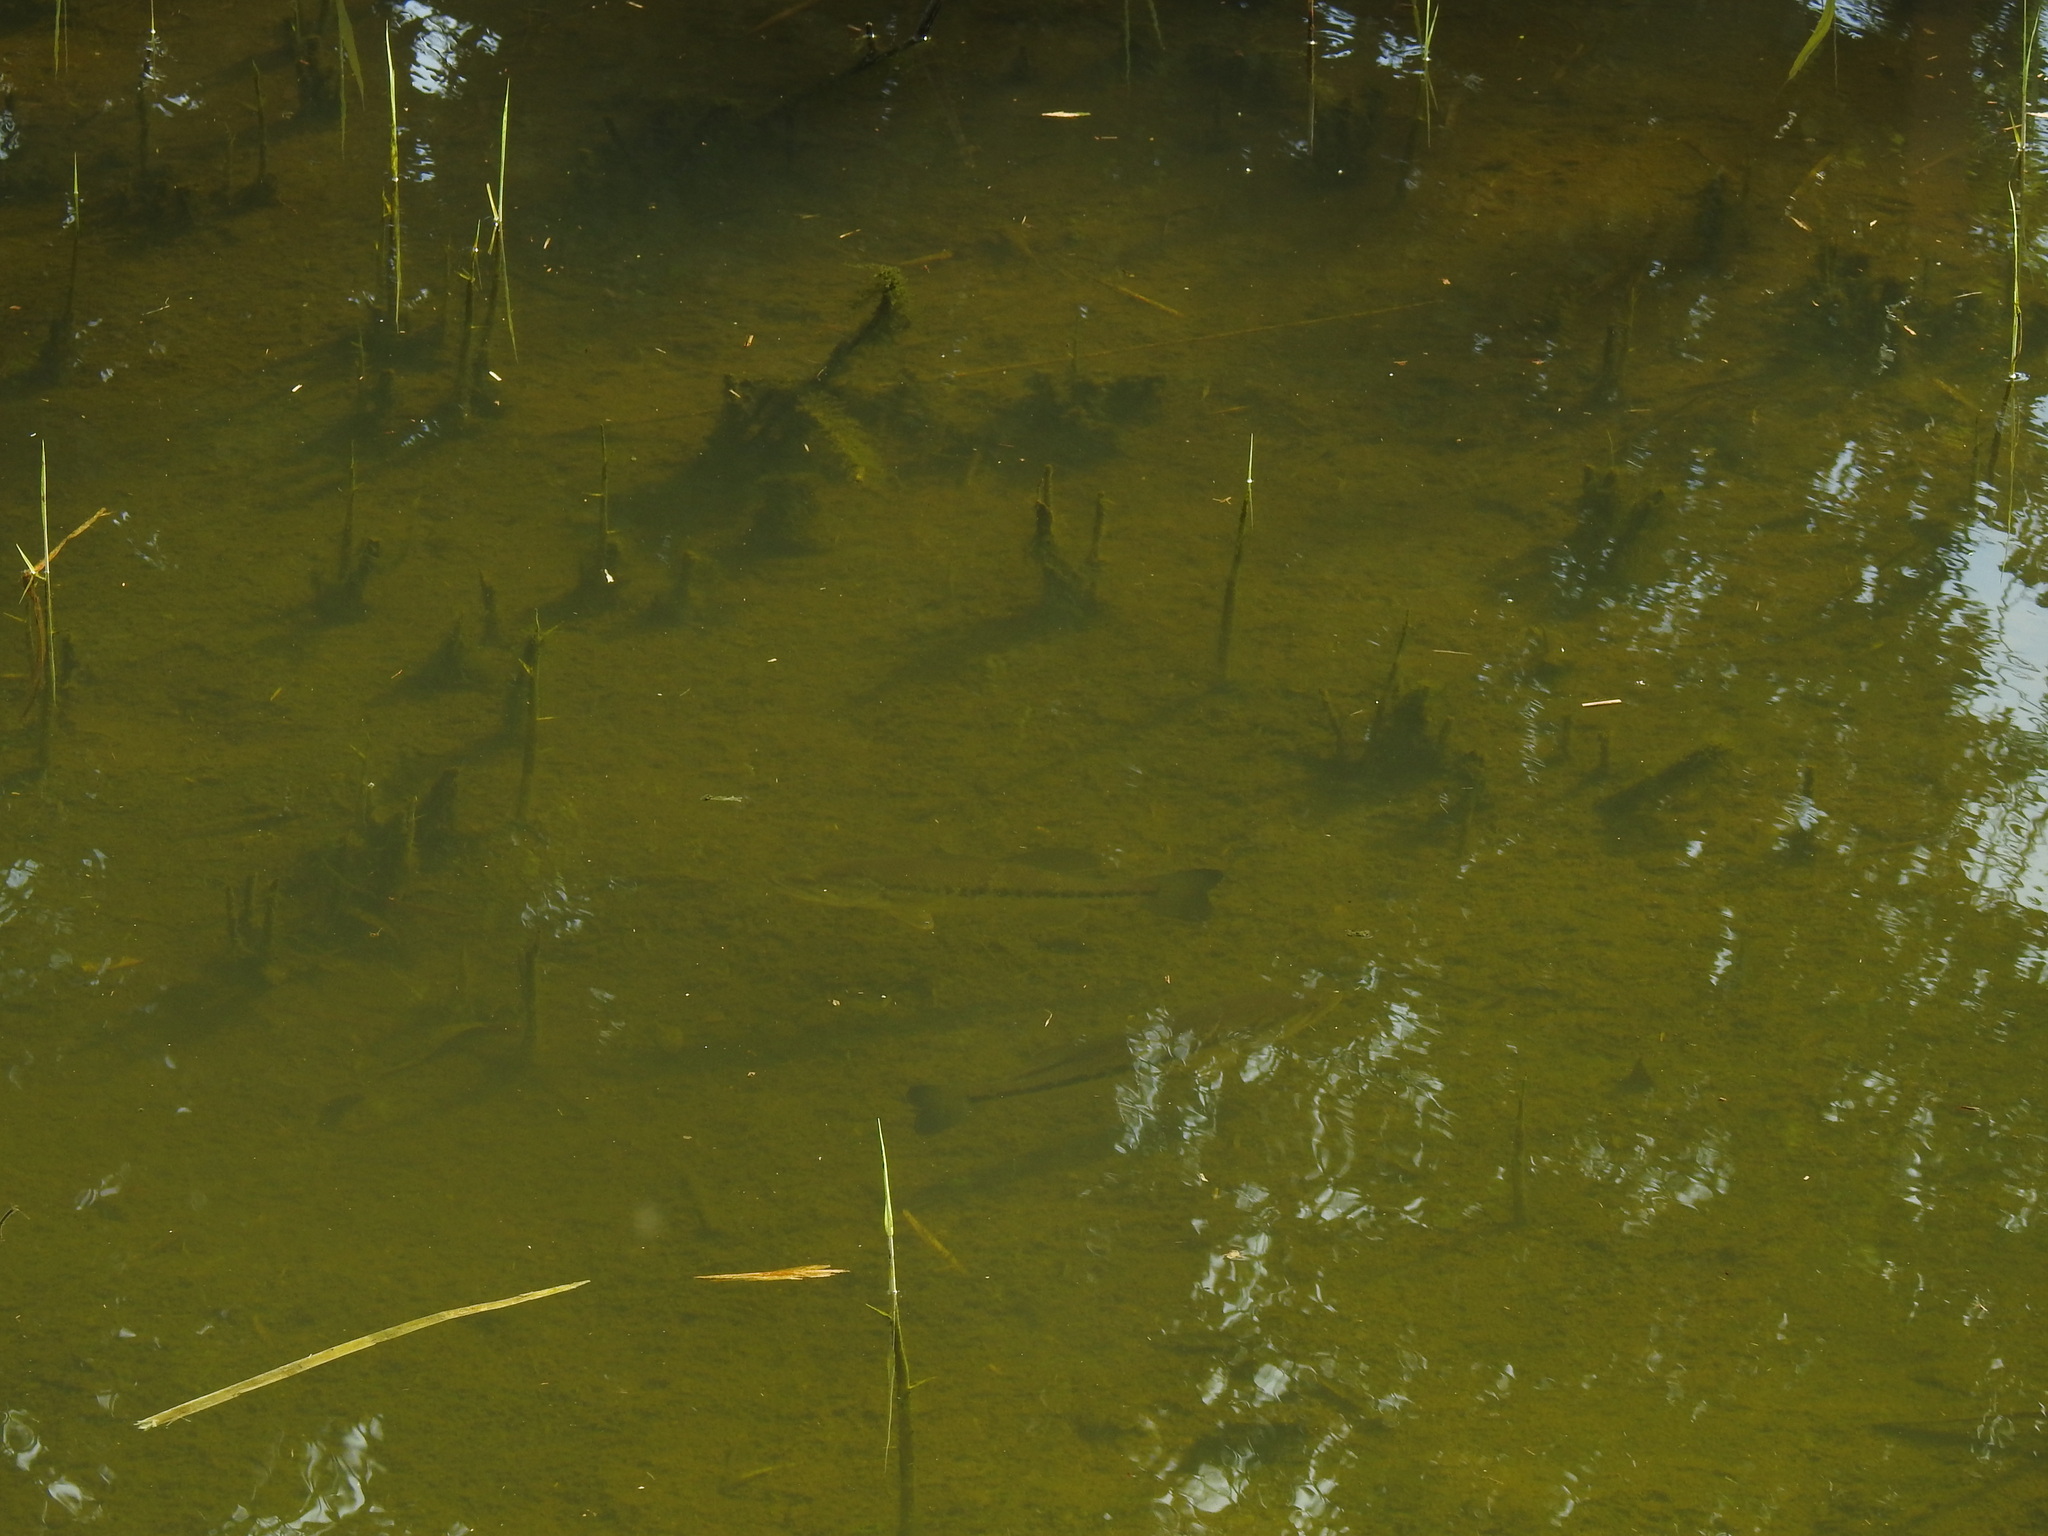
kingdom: Animalia
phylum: Chordata
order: Perciformes
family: Centrarchidae
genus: Micropterus
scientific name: Micropterus
